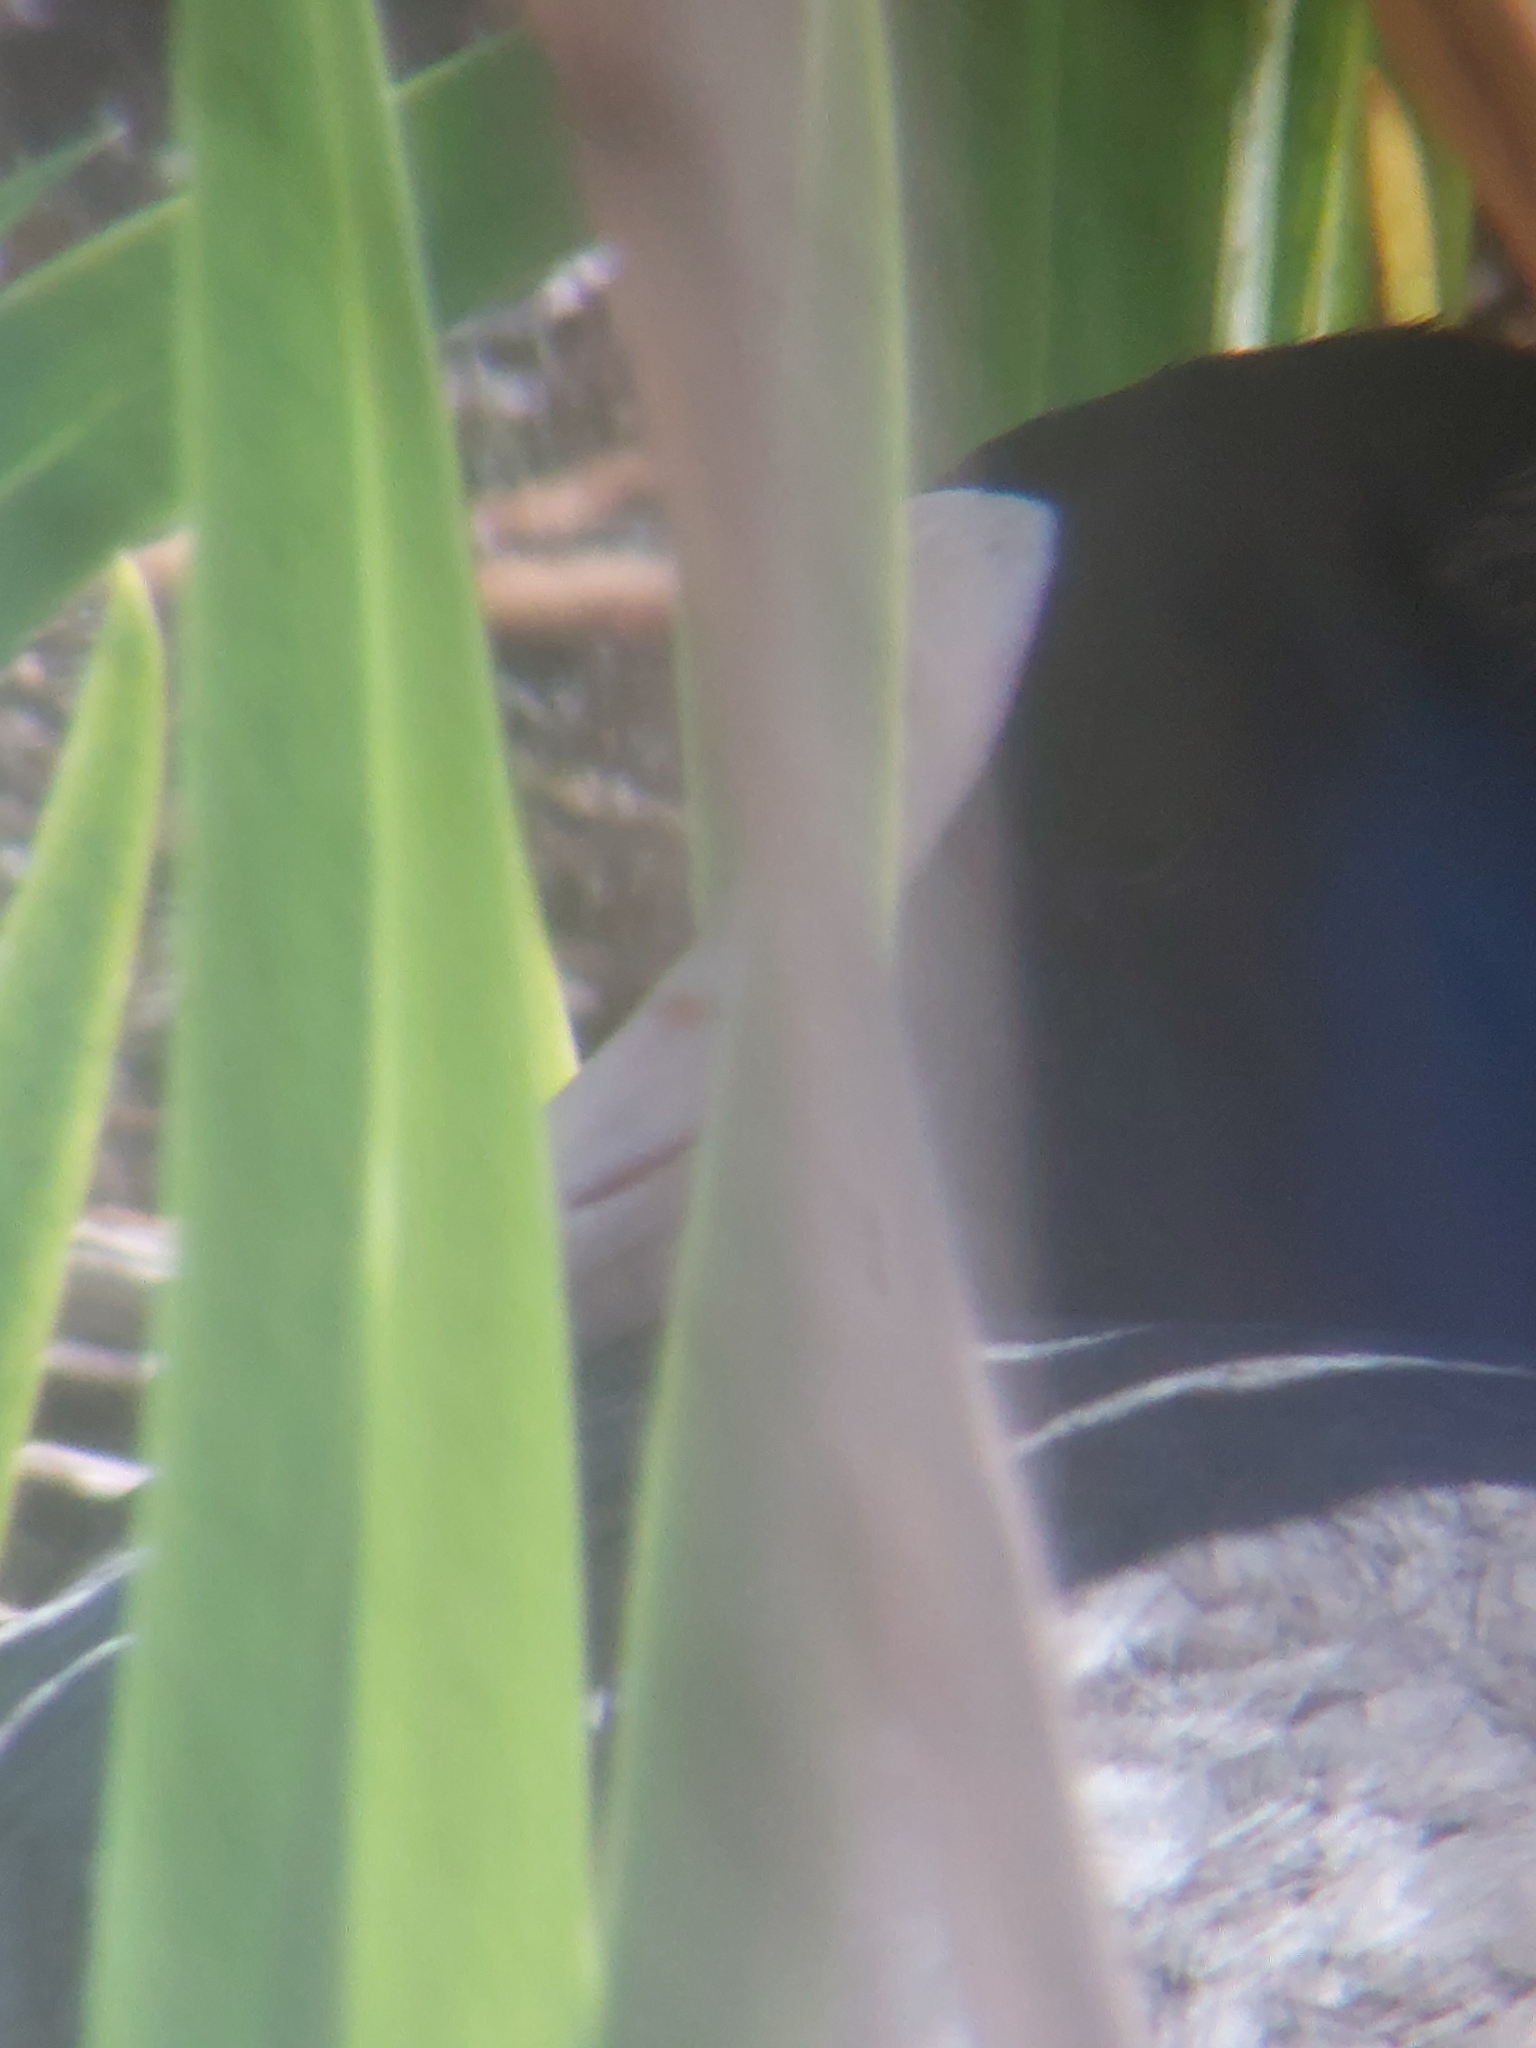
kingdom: Animalia
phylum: Chordata
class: Aves
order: Gruiformes
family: Rallidae
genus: Fulica
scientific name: Fulica atra
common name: Eurasian coot
